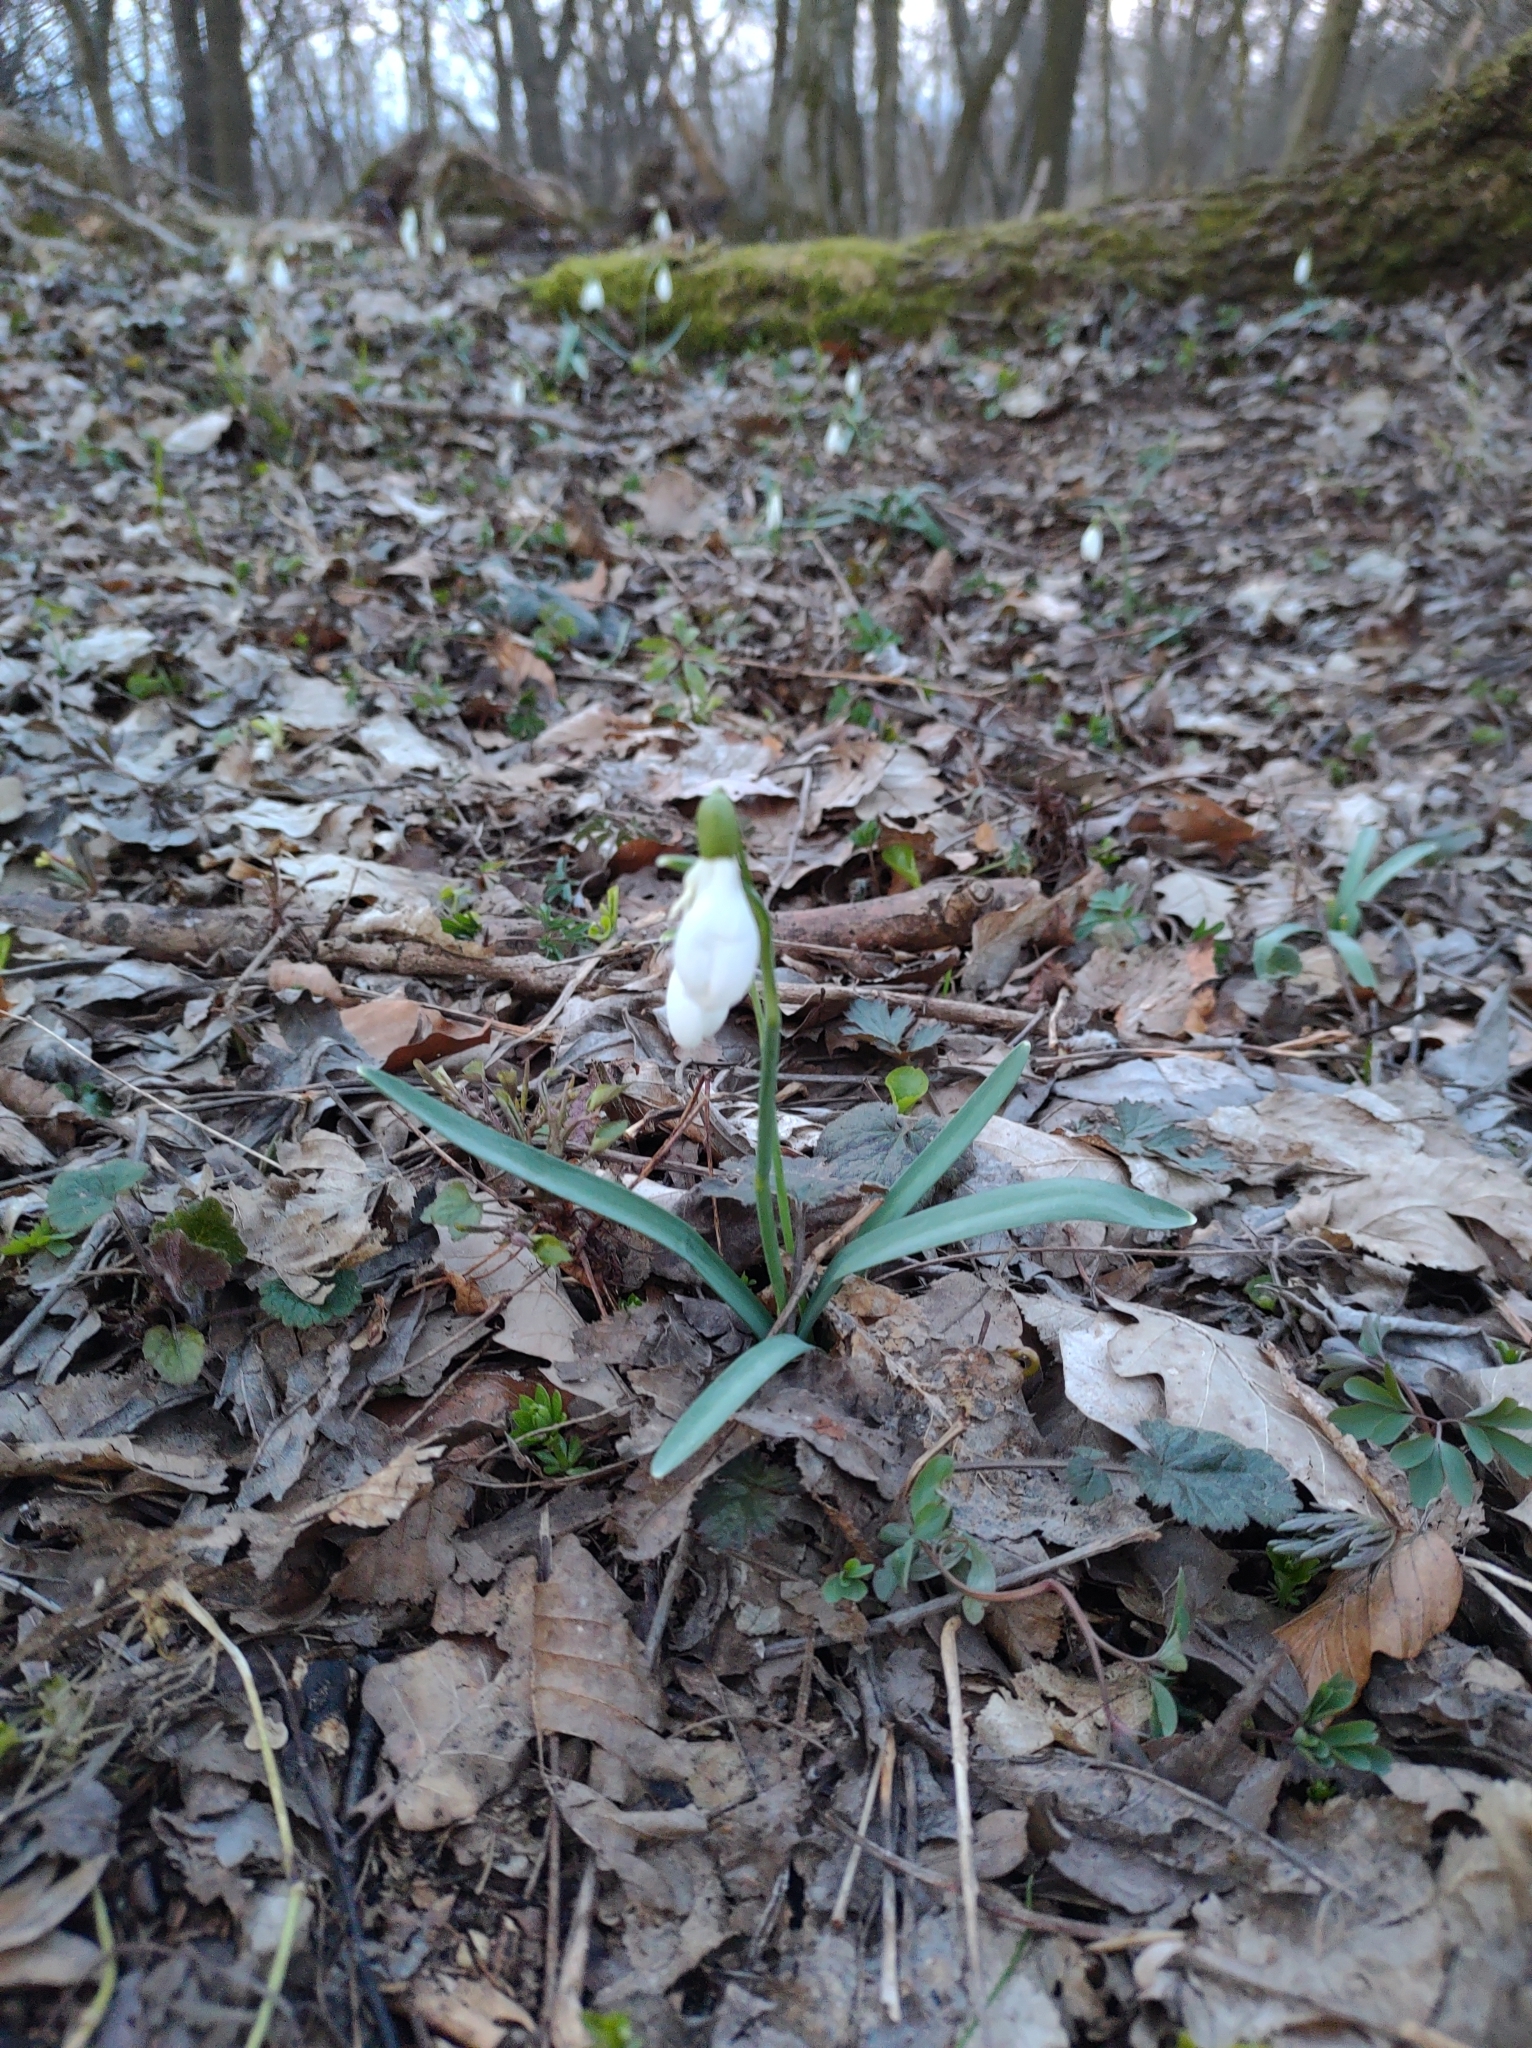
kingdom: Plantae
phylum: Tracheophyta
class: Liliopsida
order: Asparagales
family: Amaryllidaceae
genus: Galanthus
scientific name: Galanthus nivalis
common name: Snowdrop
